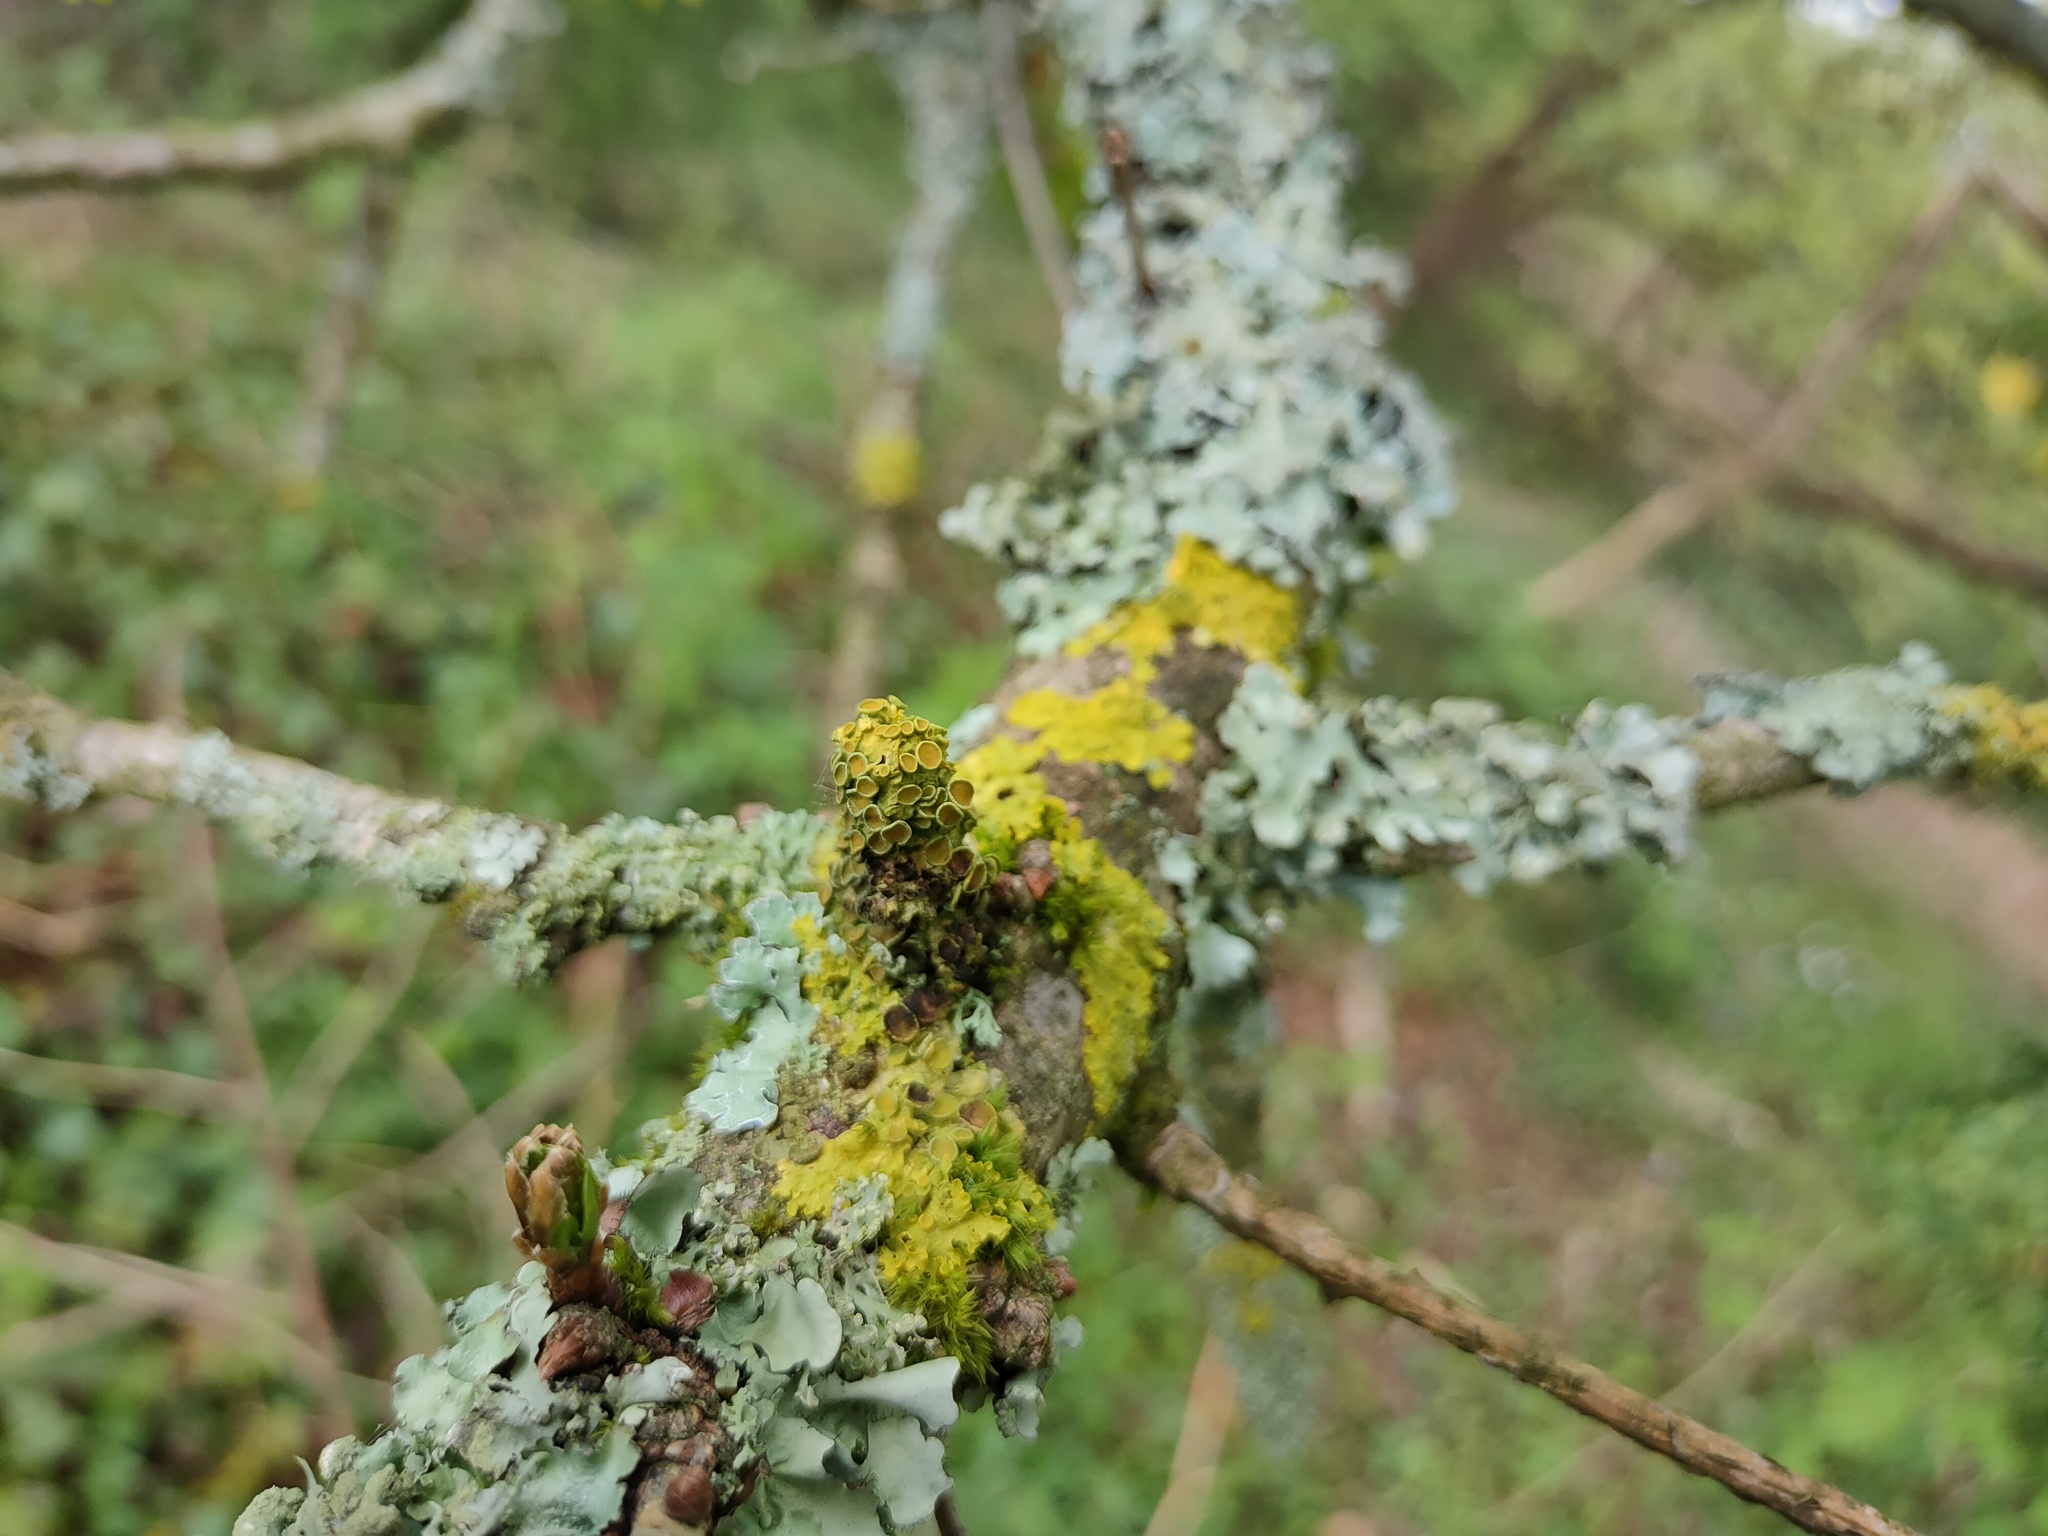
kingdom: Fungi
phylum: Ascomycota
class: Lecanoromycetes
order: Teloschistales
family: Teloschistaceae
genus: Xanthoria
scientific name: Xanthoria parietina
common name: Common orange lichen
